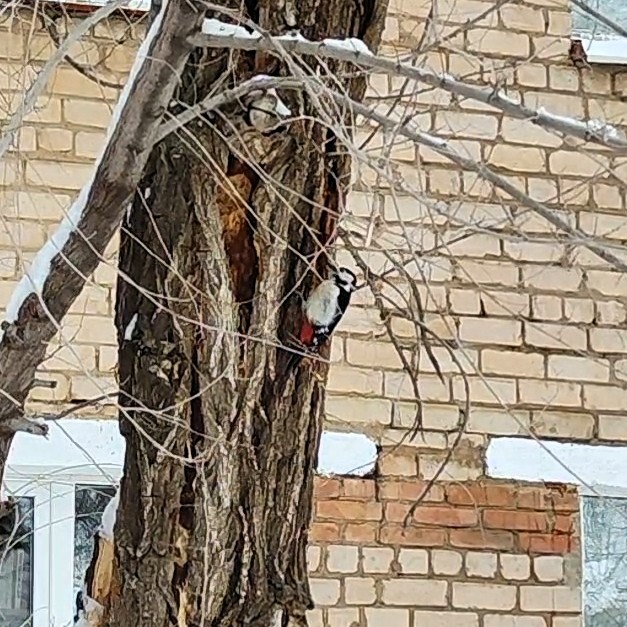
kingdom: Animalia
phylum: Chordata
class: Aves
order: Piciformes
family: Picidae
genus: Dendrocopos
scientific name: Dendrocopos major
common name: Great spotted woodpecker
